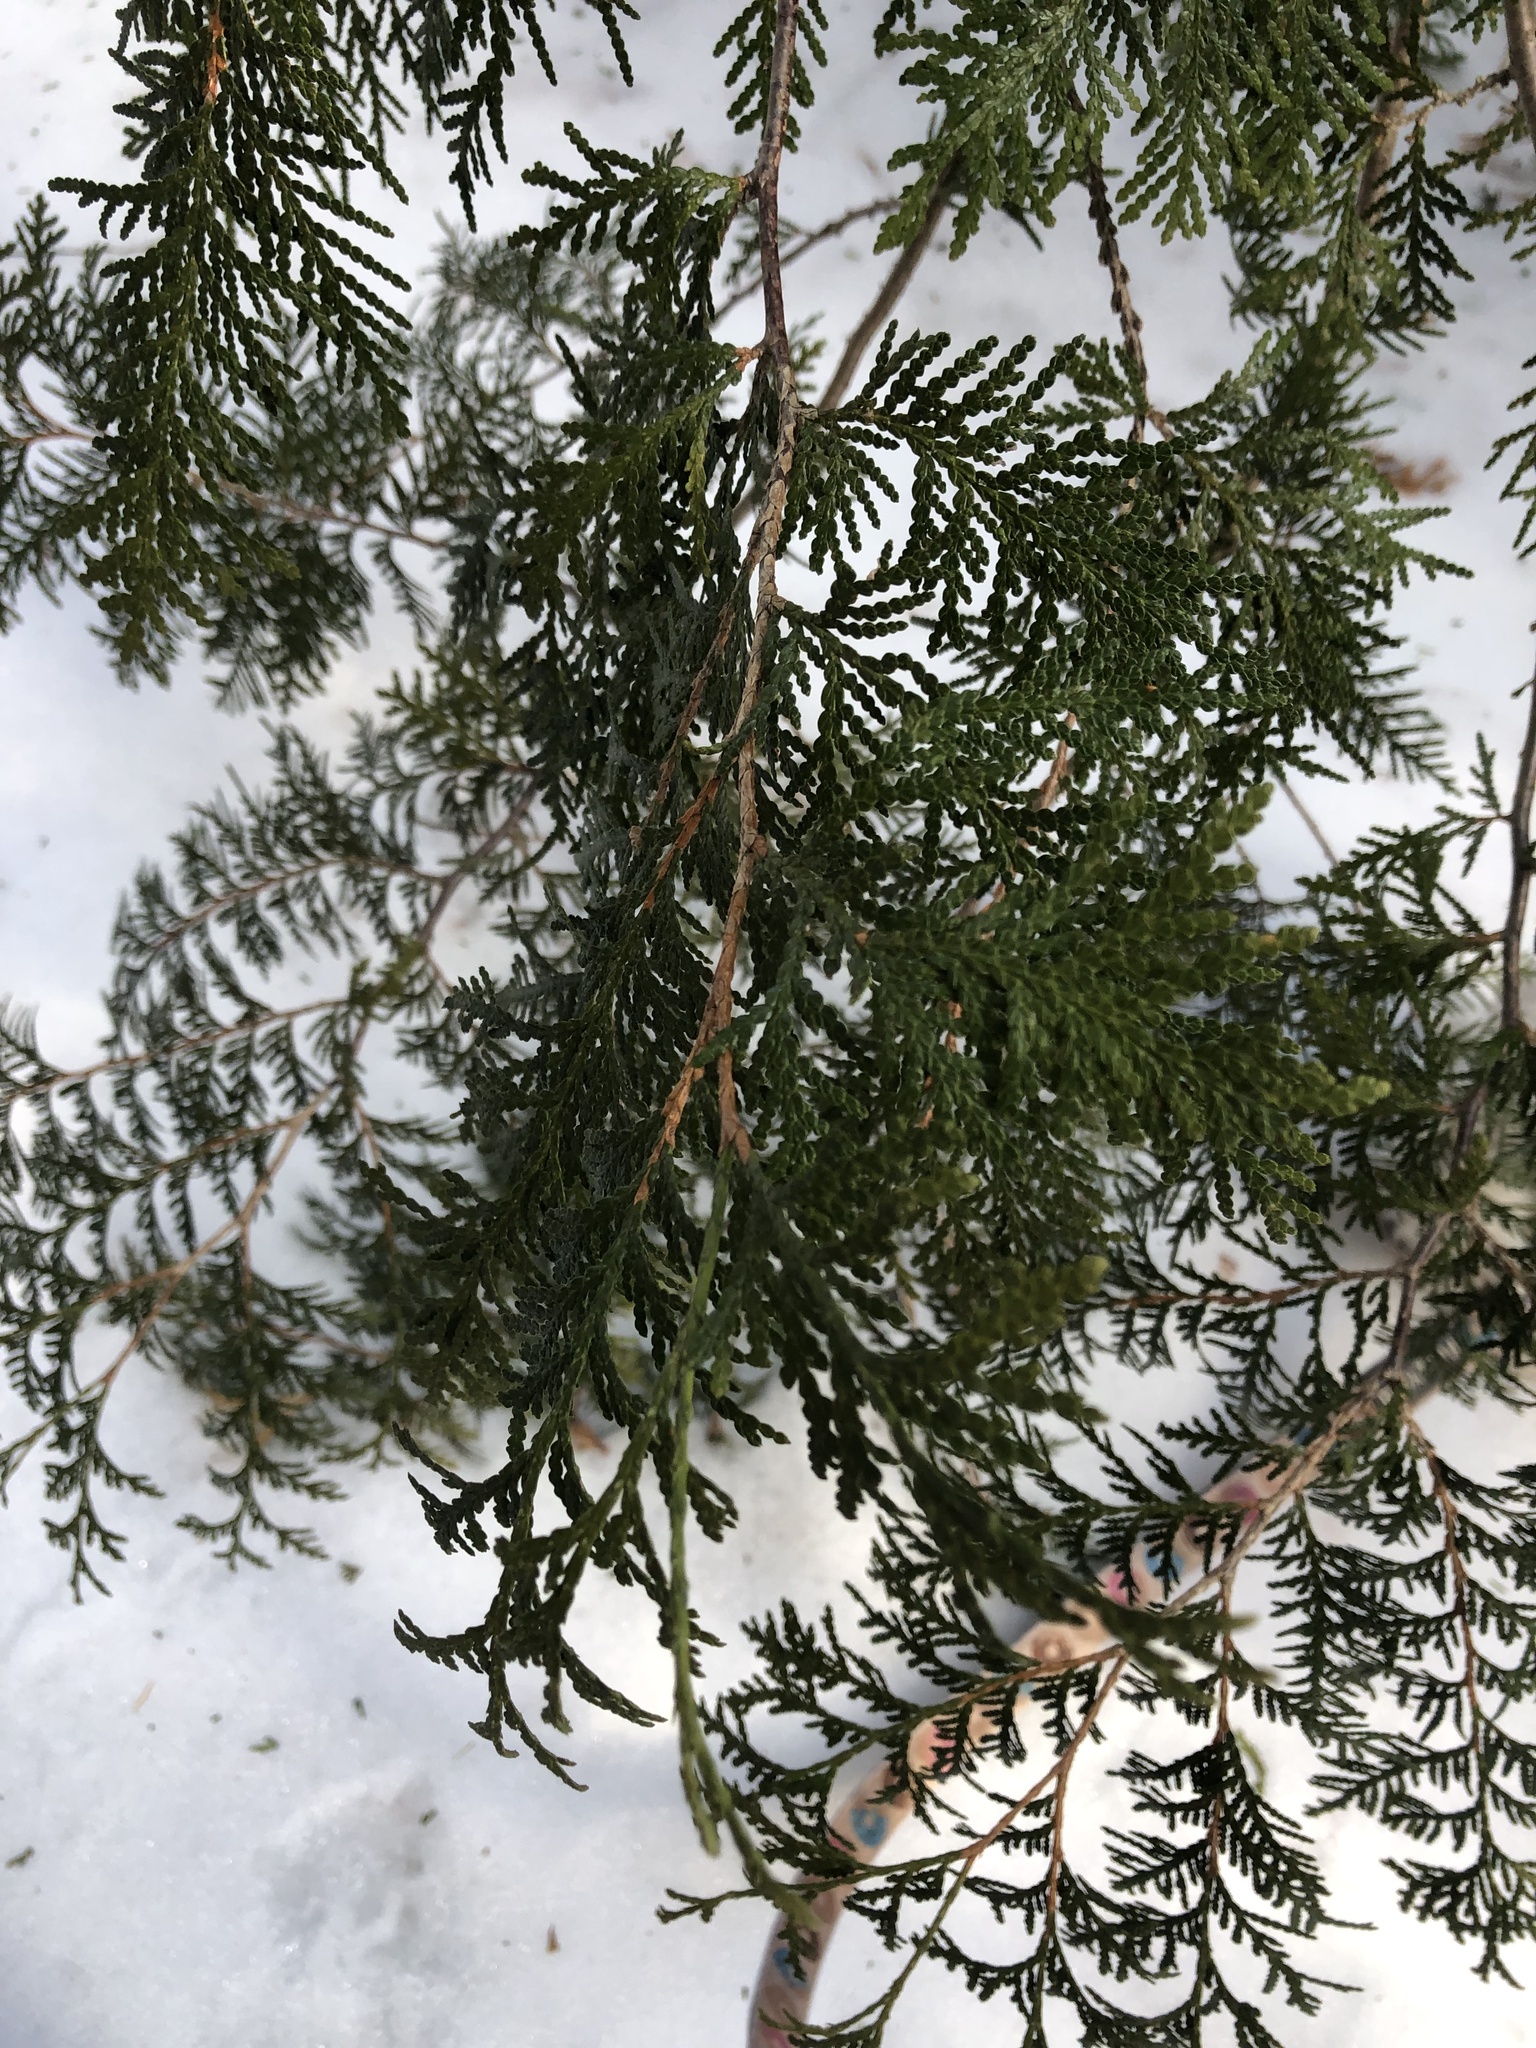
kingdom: Plantae
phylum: Tracheophyta
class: Pinopsida
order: Pinales
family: Cupressaceae
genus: Thuja
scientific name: Thuja occidentalis
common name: Northern white-cedar
